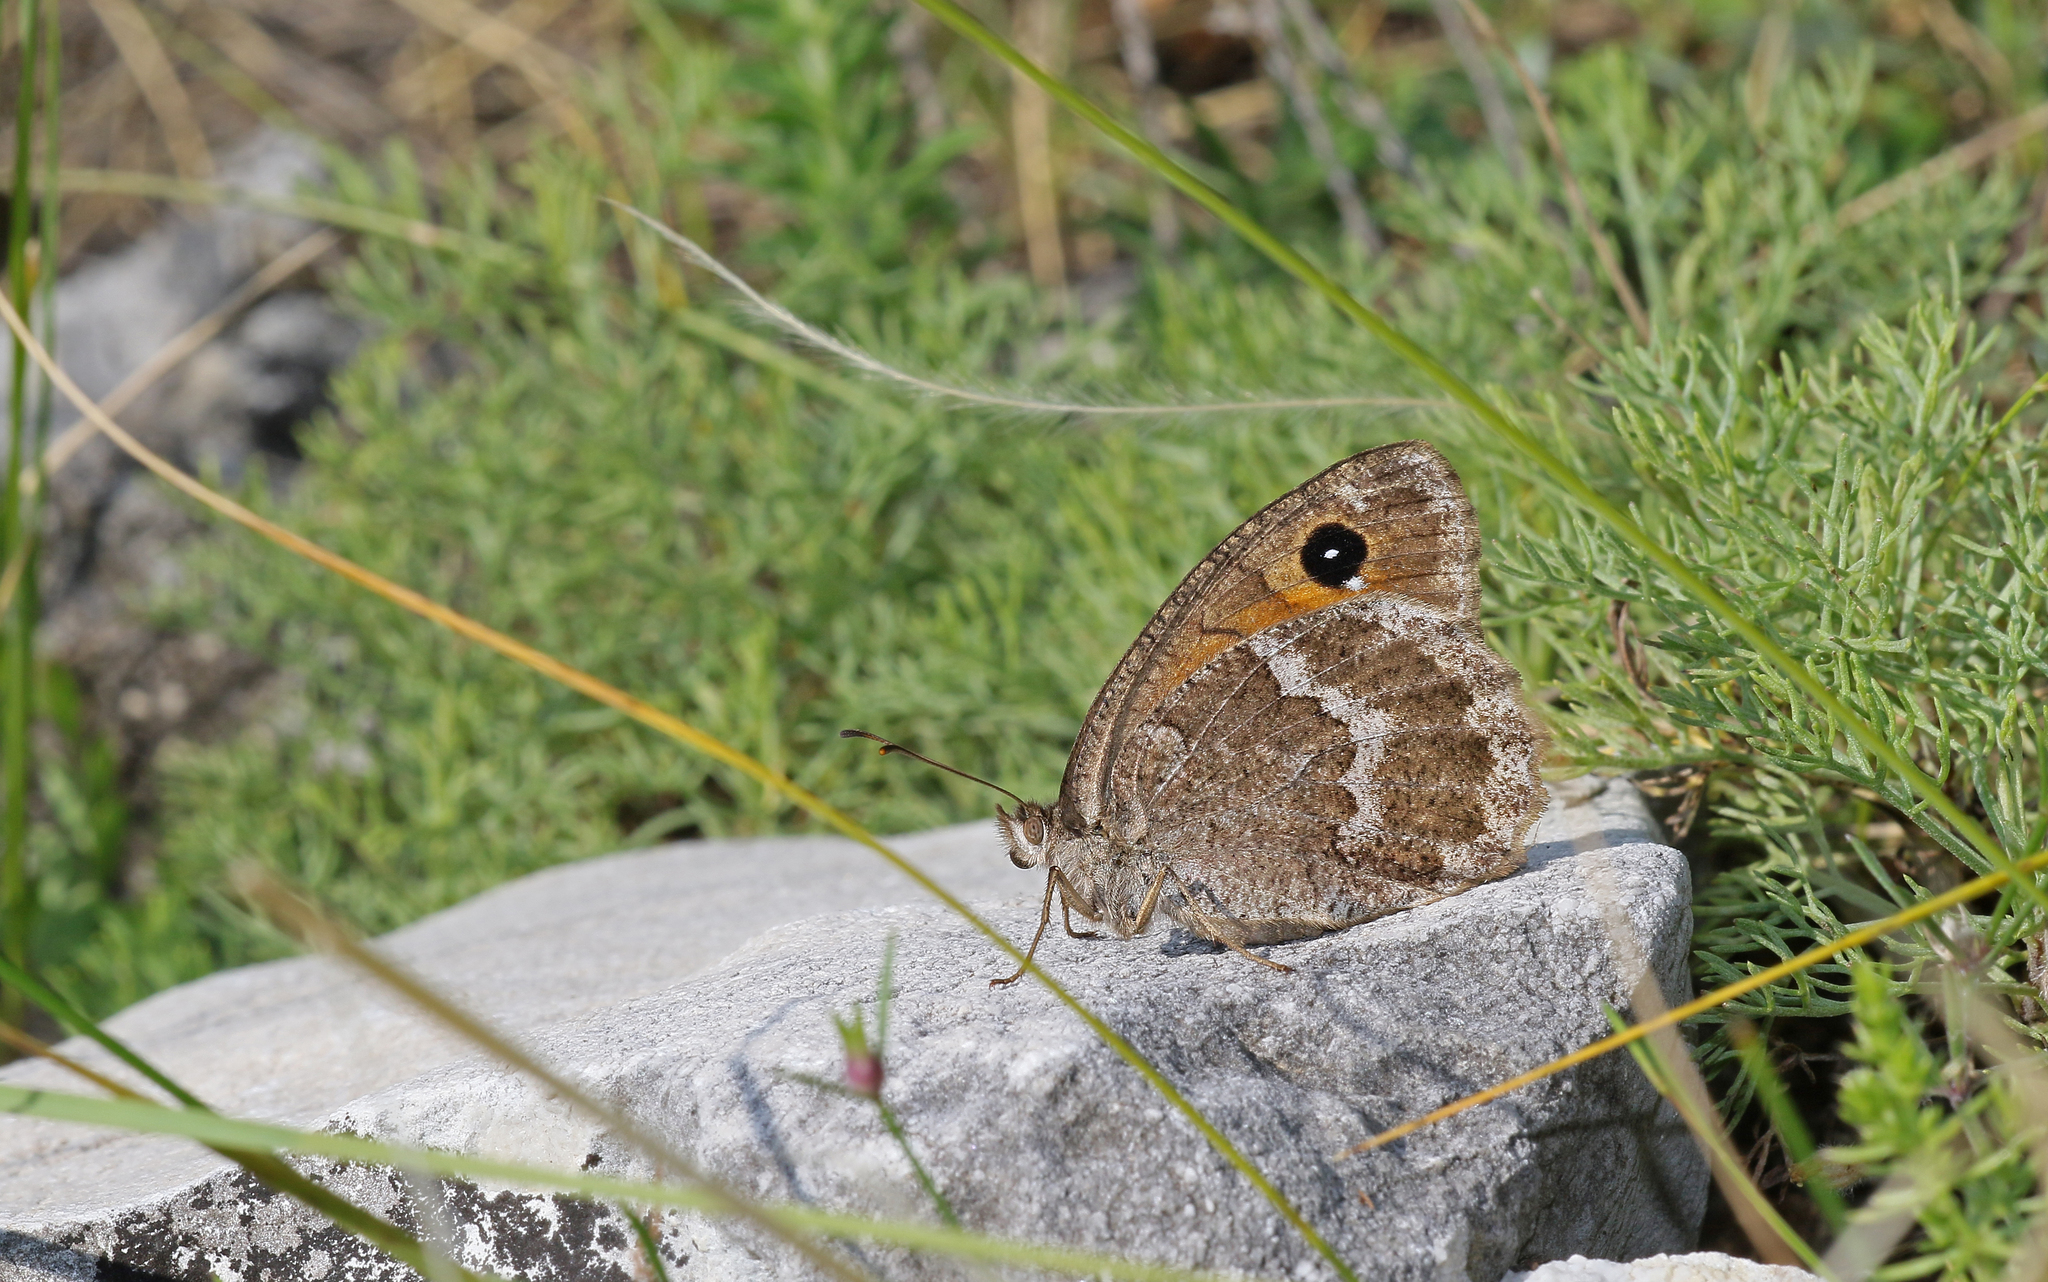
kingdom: Animalia
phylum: Arthropoda
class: Insecta
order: Lepidoptera
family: Nymphalidae
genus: Satyrus
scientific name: Satyrus ferula
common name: Great sooty satyr
